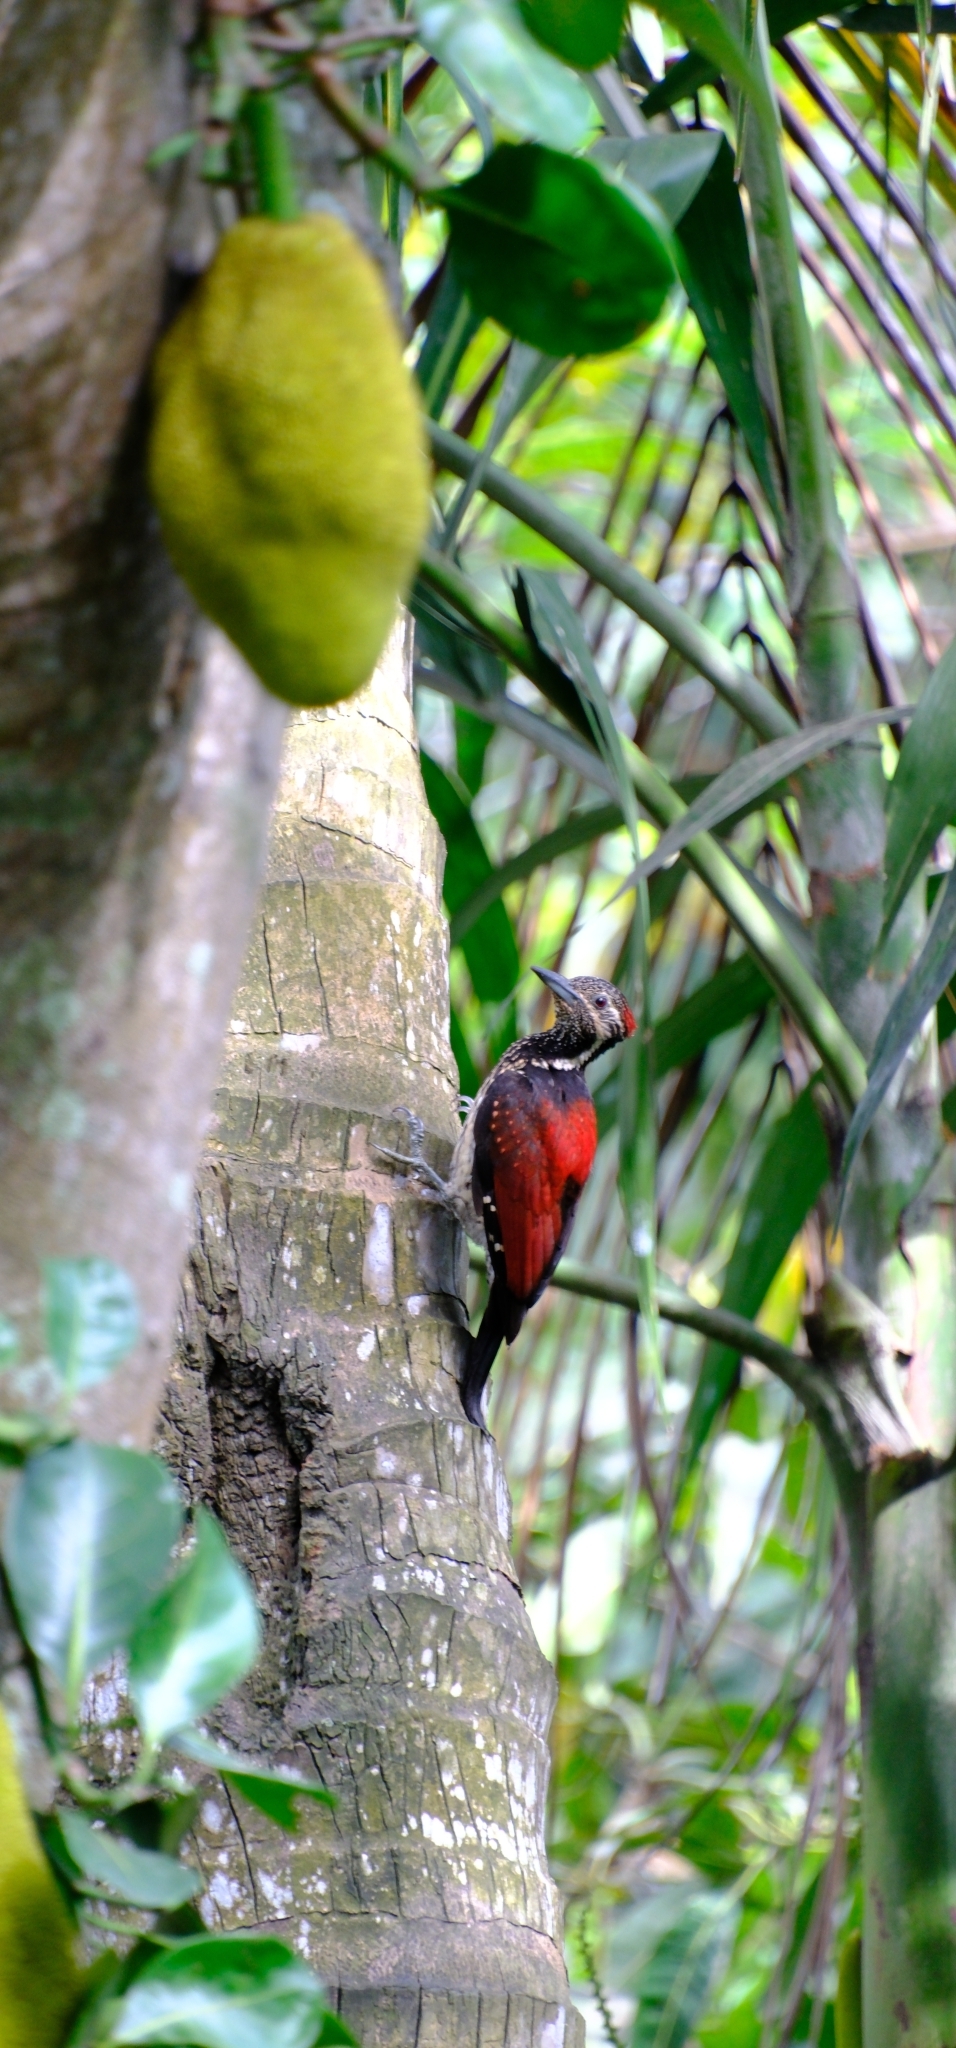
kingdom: Animalia
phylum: Chordata
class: Aves
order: Piciformes
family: Picidae
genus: Dinopium
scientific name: Dinopium psarodes
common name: Red-backed flameback
